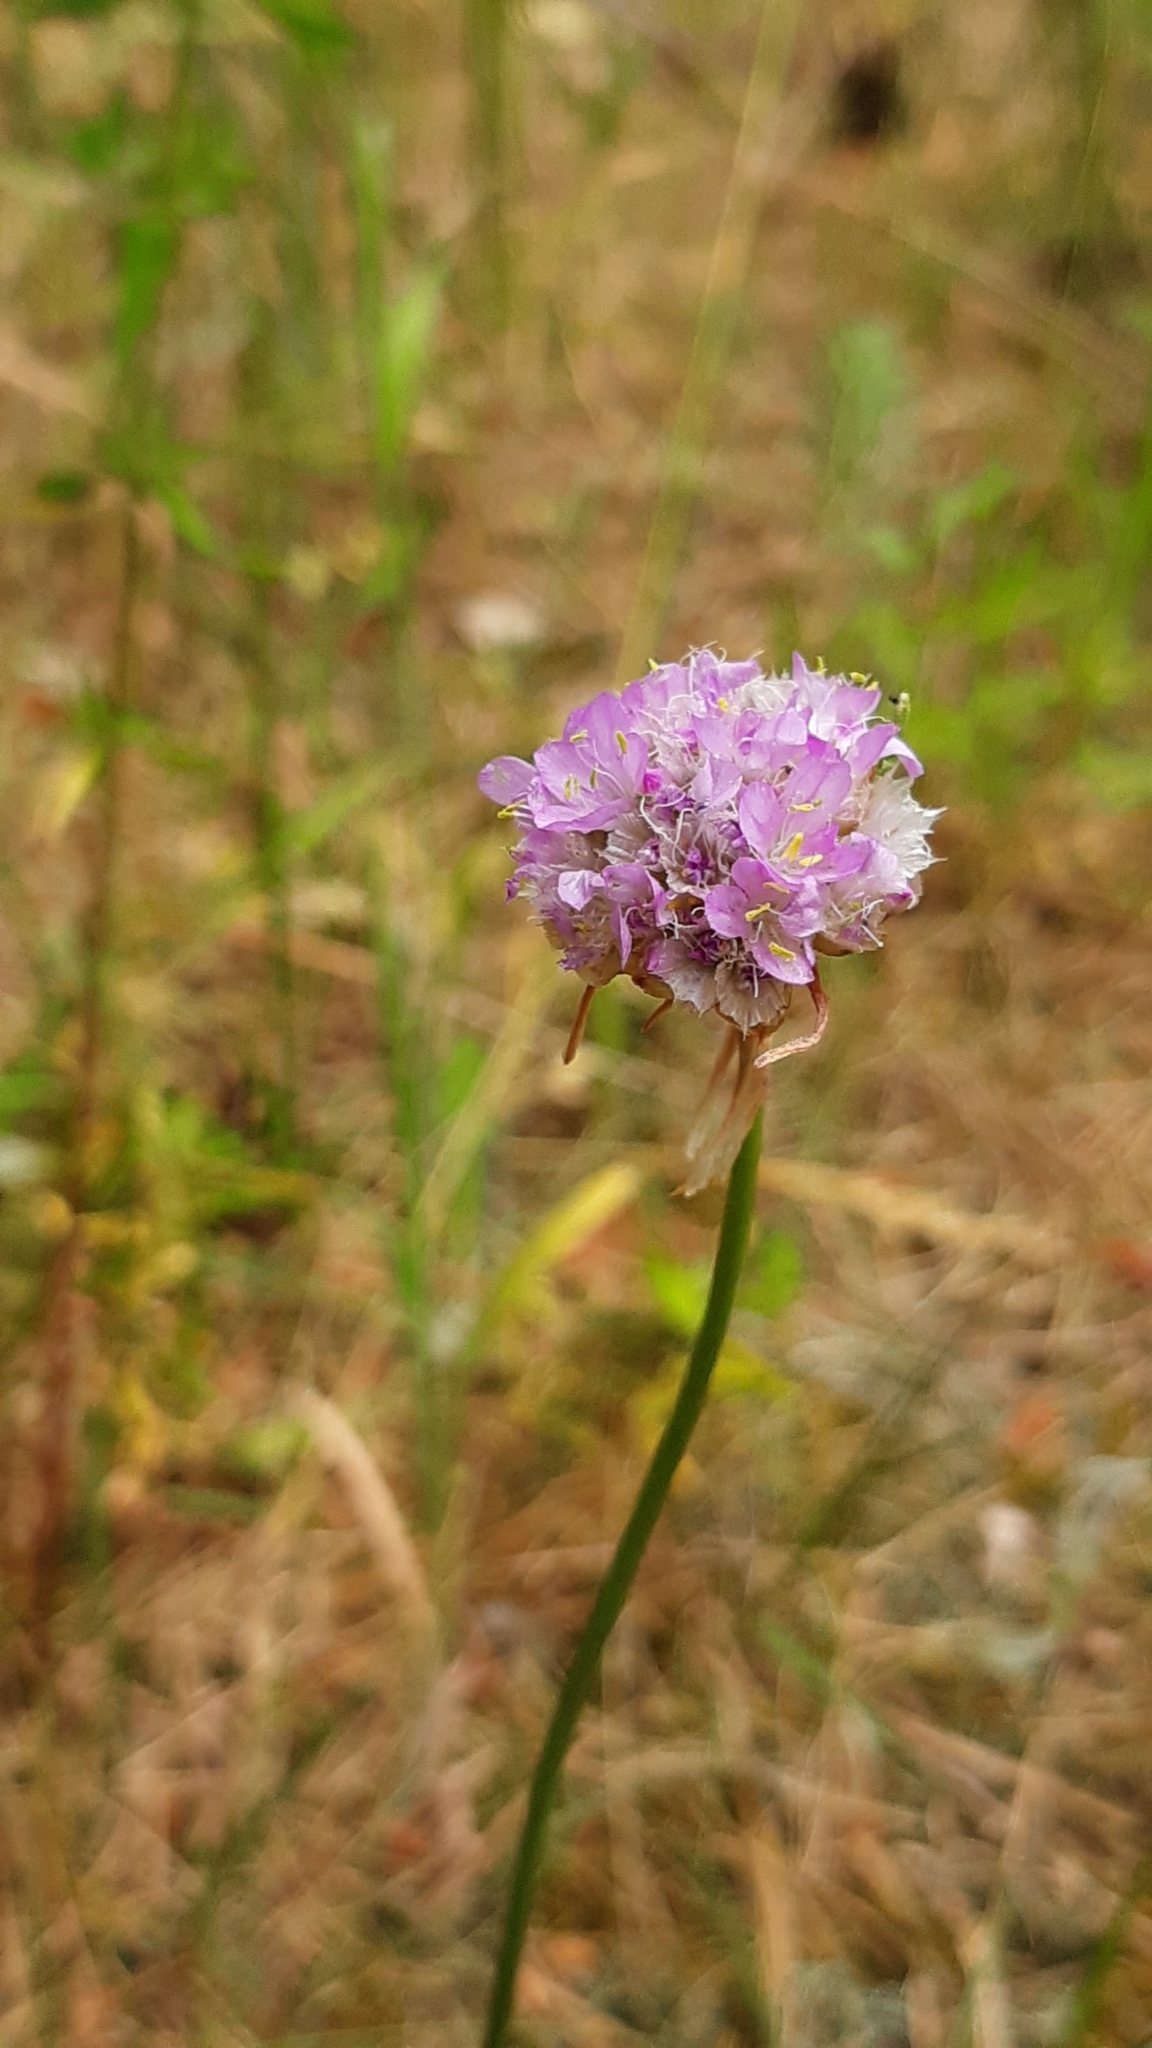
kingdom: Plantae
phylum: Tracheophyta
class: Magnoliopsida
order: Caryophyllales
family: Plumbaginaceae
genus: Armeria
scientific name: Armeria maritima
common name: Thrift
